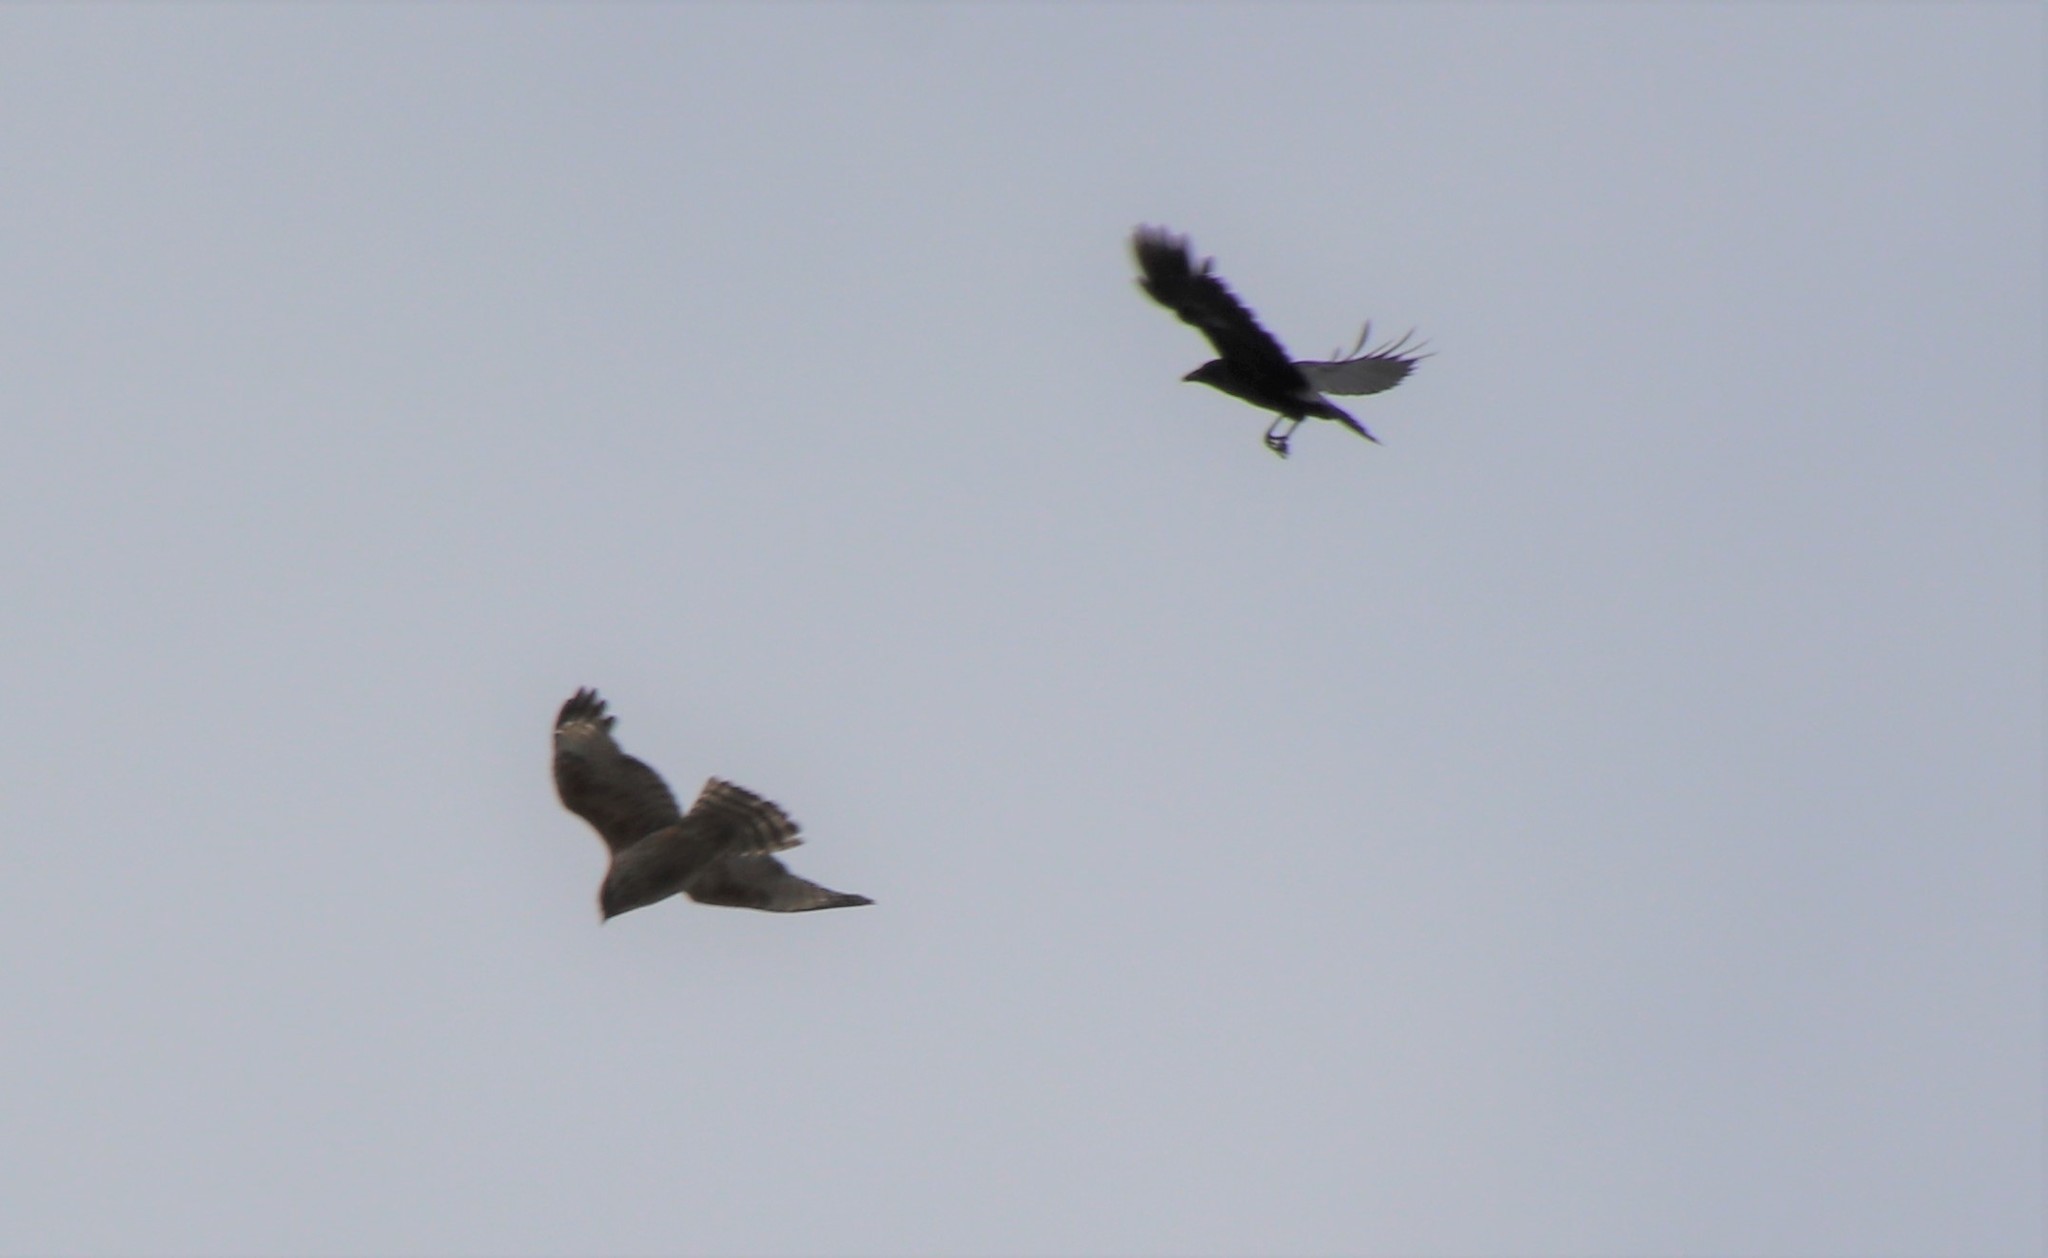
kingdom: Animalia
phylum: Chordata
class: Aves
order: Passeriformes
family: Corvidae
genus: Corvus
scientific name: Corvus brachyrhynchos
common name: American crow
